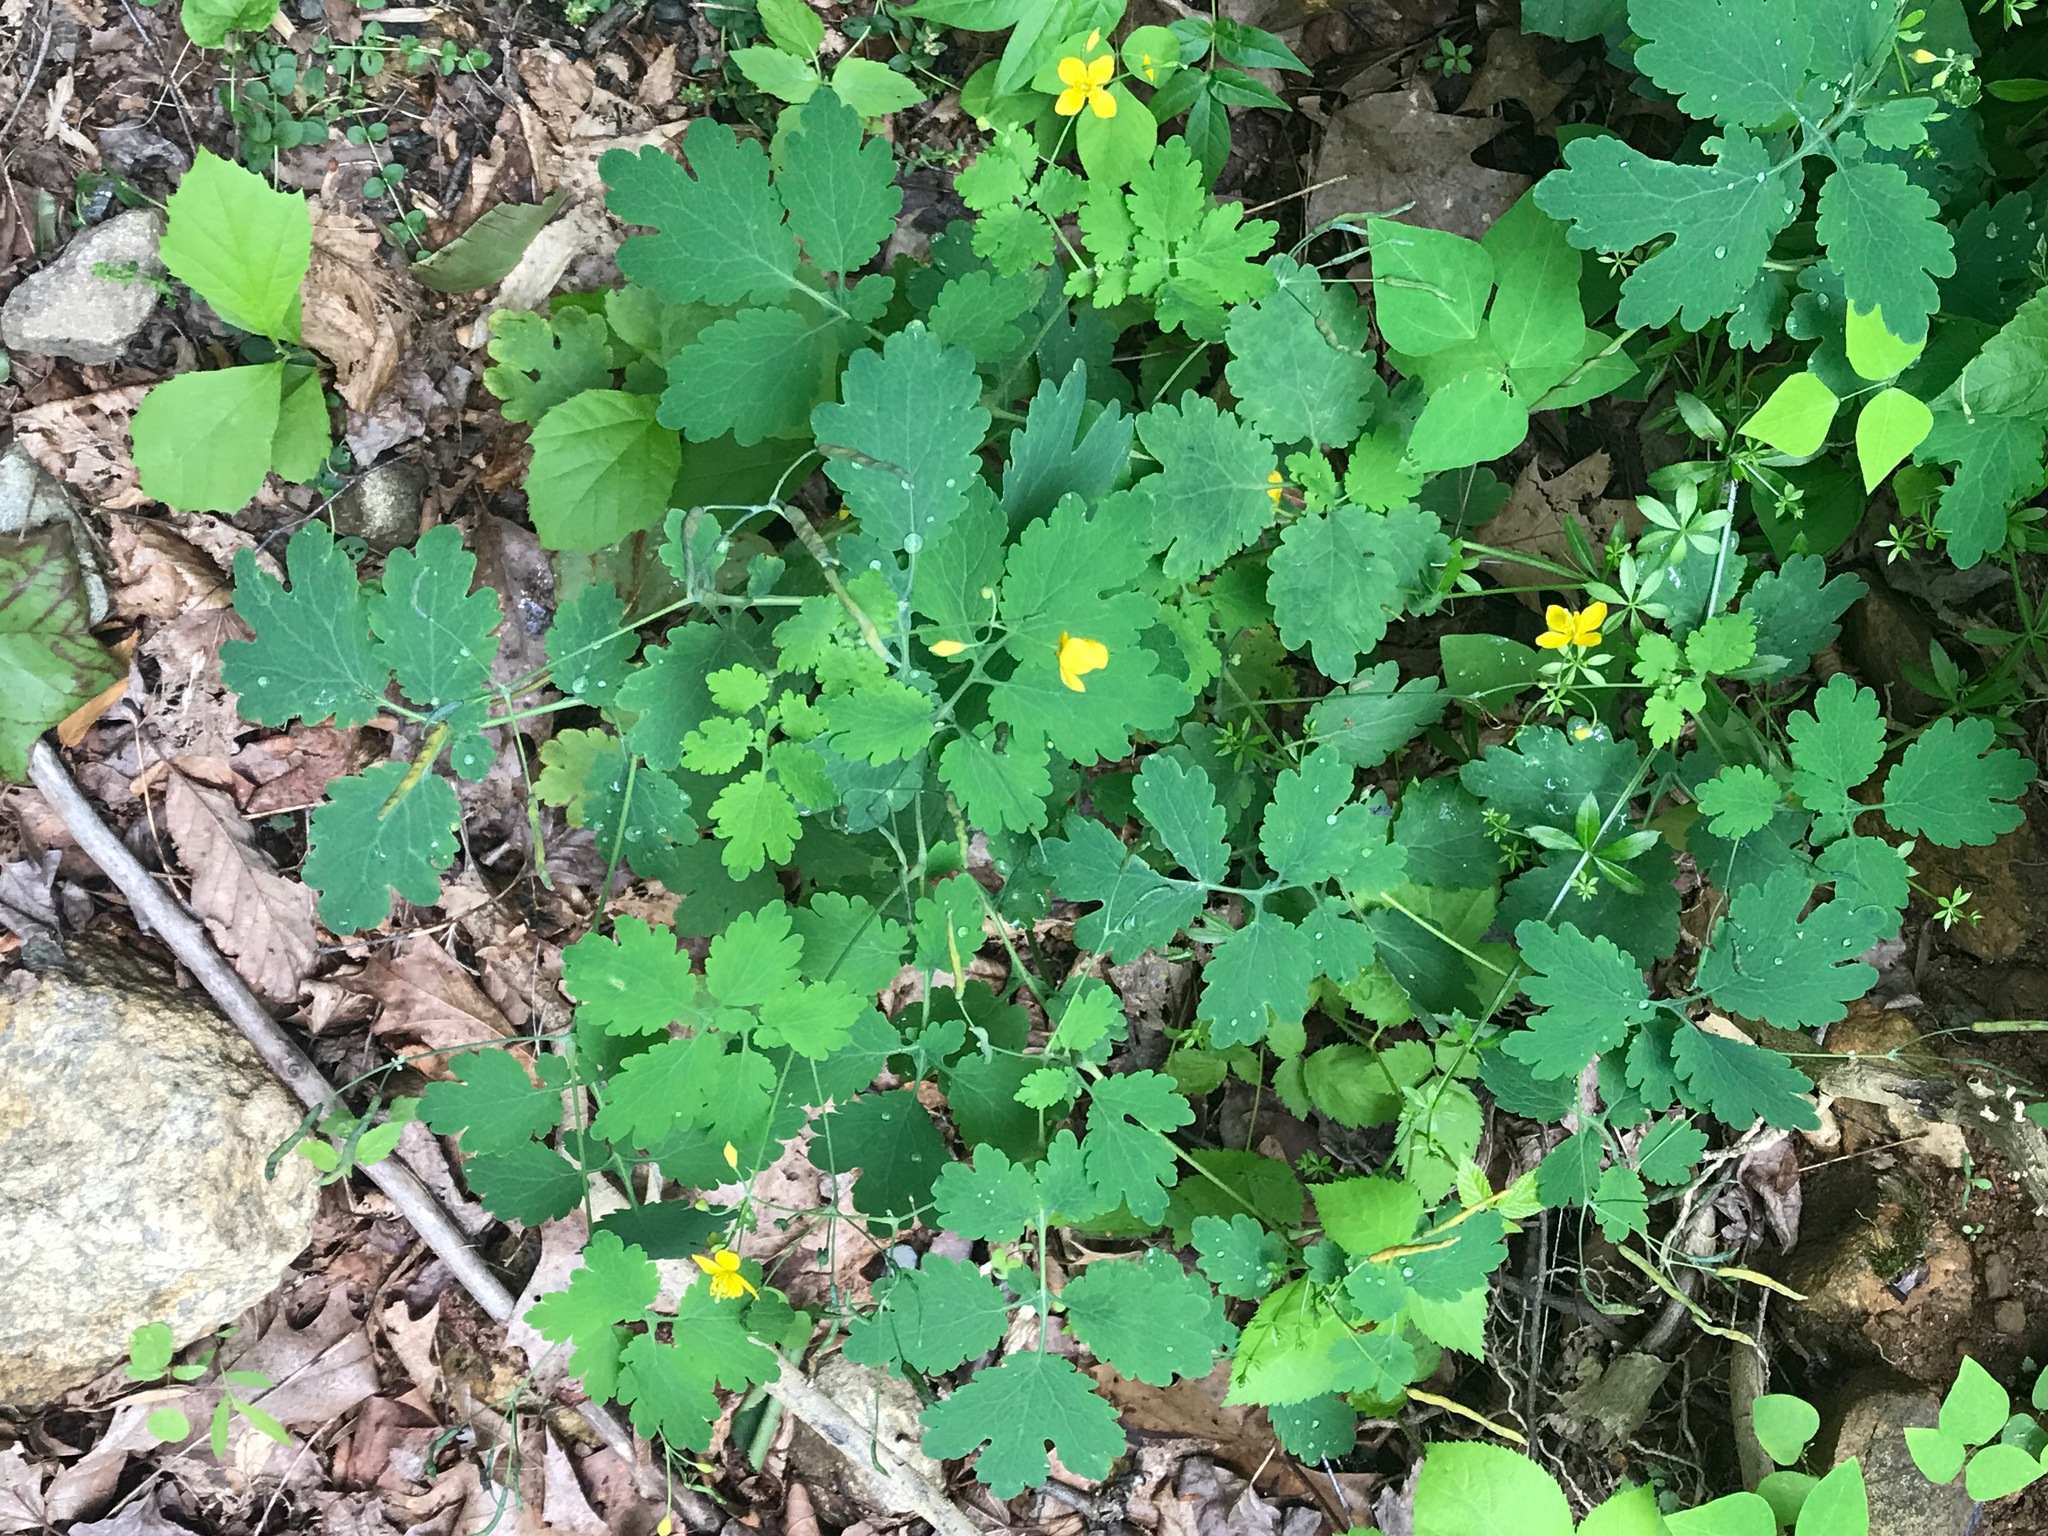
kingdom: Plantae
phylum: Tracheophyta
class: Magnoliopsida
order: Ranunculales
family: Papaveraceae
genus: Chelidonium
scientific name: Chelidonium majus
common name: Greater celandine
